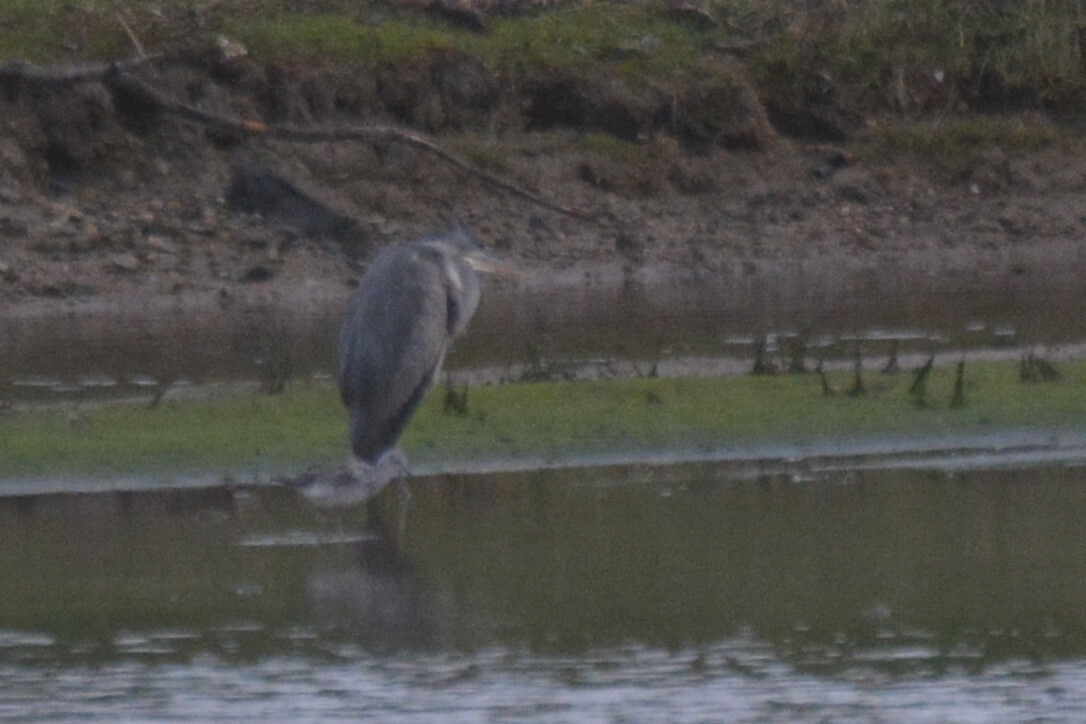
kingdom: Animalia
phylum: Chordata
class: Aves
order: Pelecaniformes
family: Ardeidae
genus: Ardea
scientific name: Ardea cinerea
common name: Grey heron
